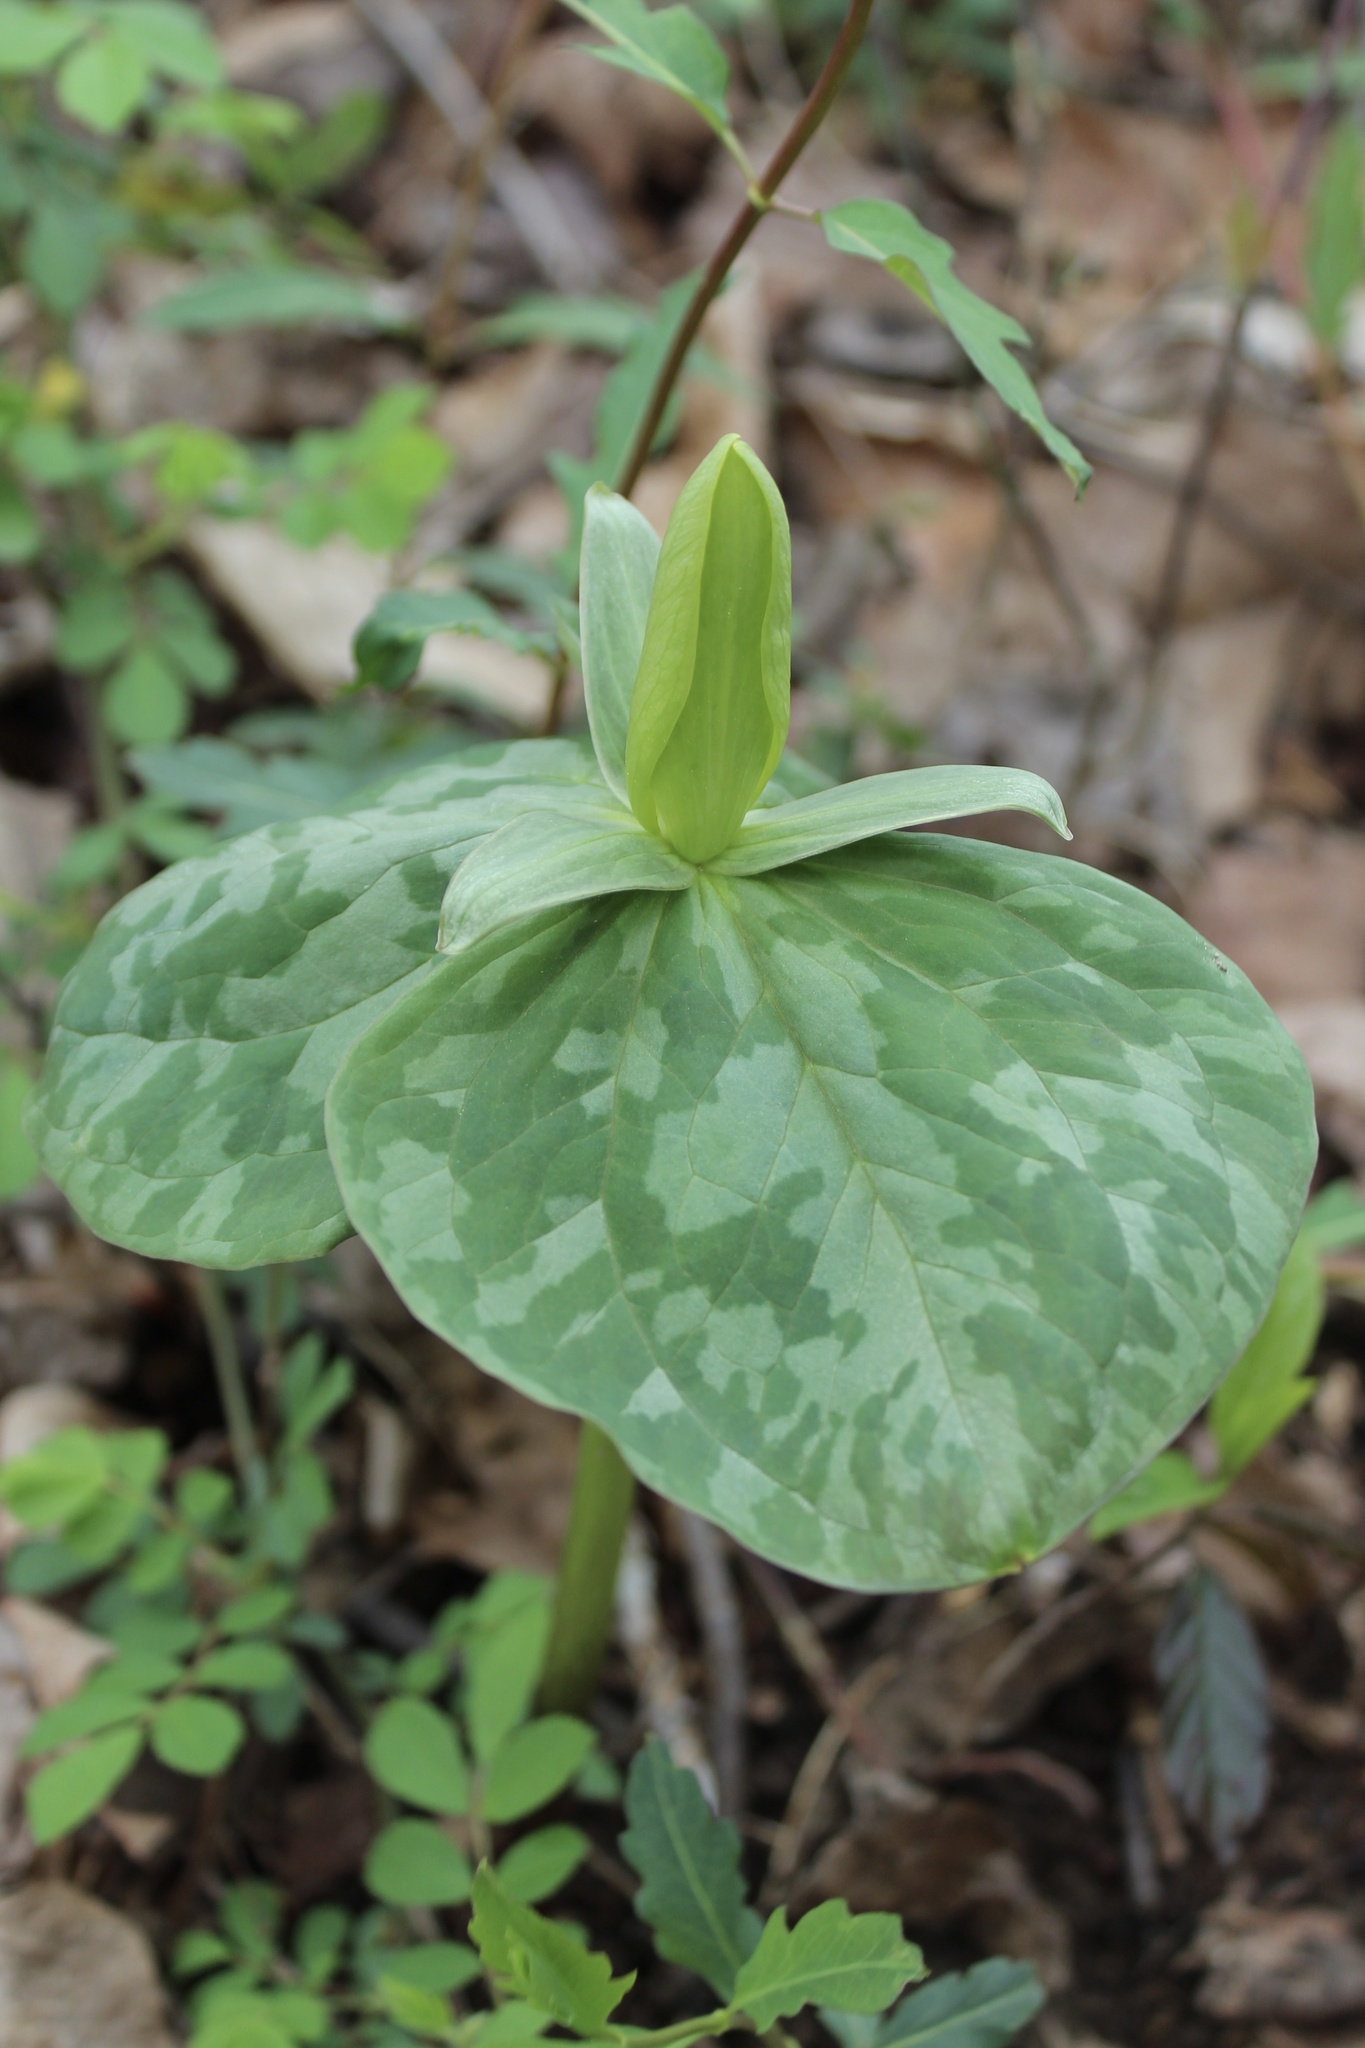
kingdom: Plantae
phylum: Tracheophyta
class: Liliopsida
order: Liliales
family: Melanthiaceae
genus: Trillium
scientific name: Trillium luteum
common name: Wax trillium
